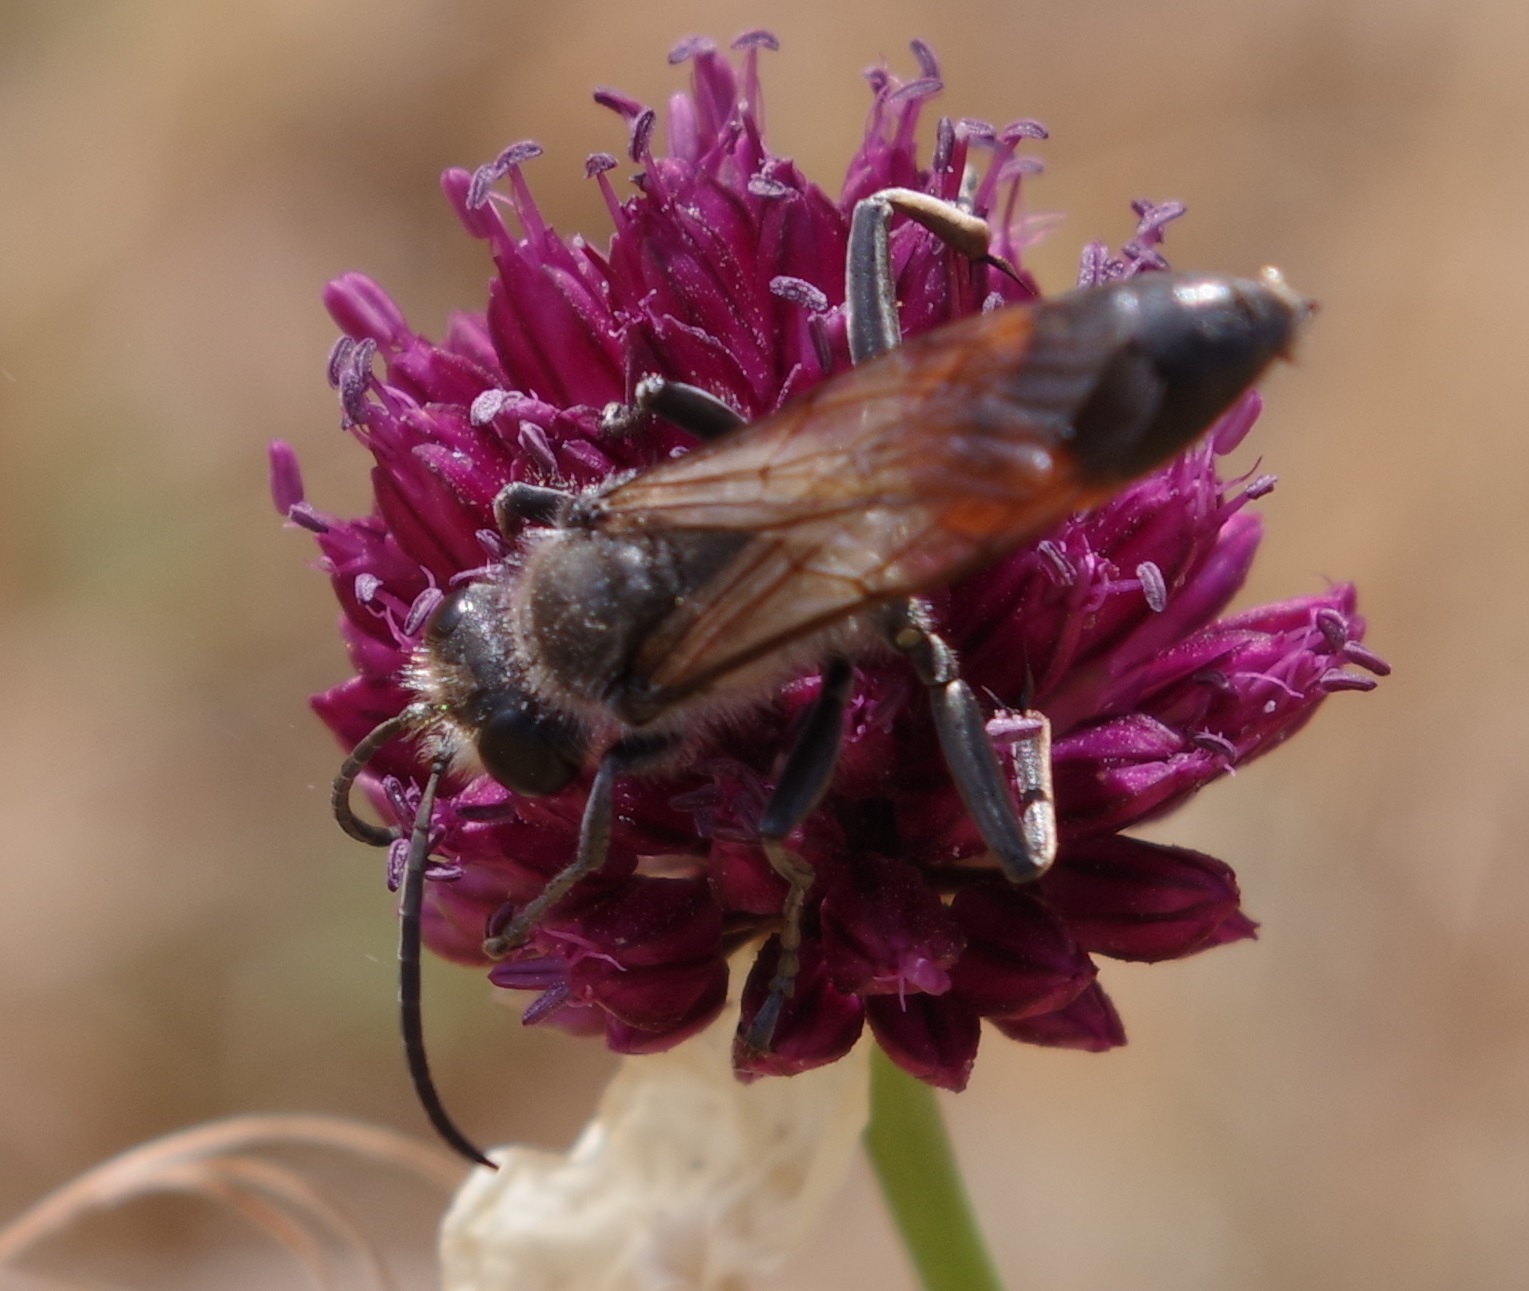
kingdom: Animalia
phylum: Arthropoda
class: Insecta
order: Hymenoptera
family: Sphecidae
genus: Sphex
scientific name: Sphex funerarius
